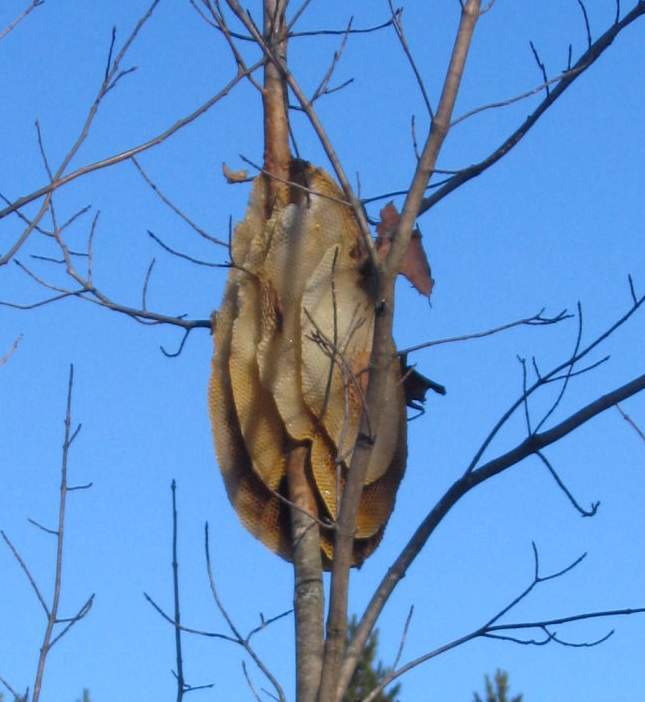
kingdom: Animalia
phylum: Arthropoda
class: Insecta
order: Hymenoptera
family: Apidae
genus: Apis
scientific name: Apis mellifera
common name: Honey bee
